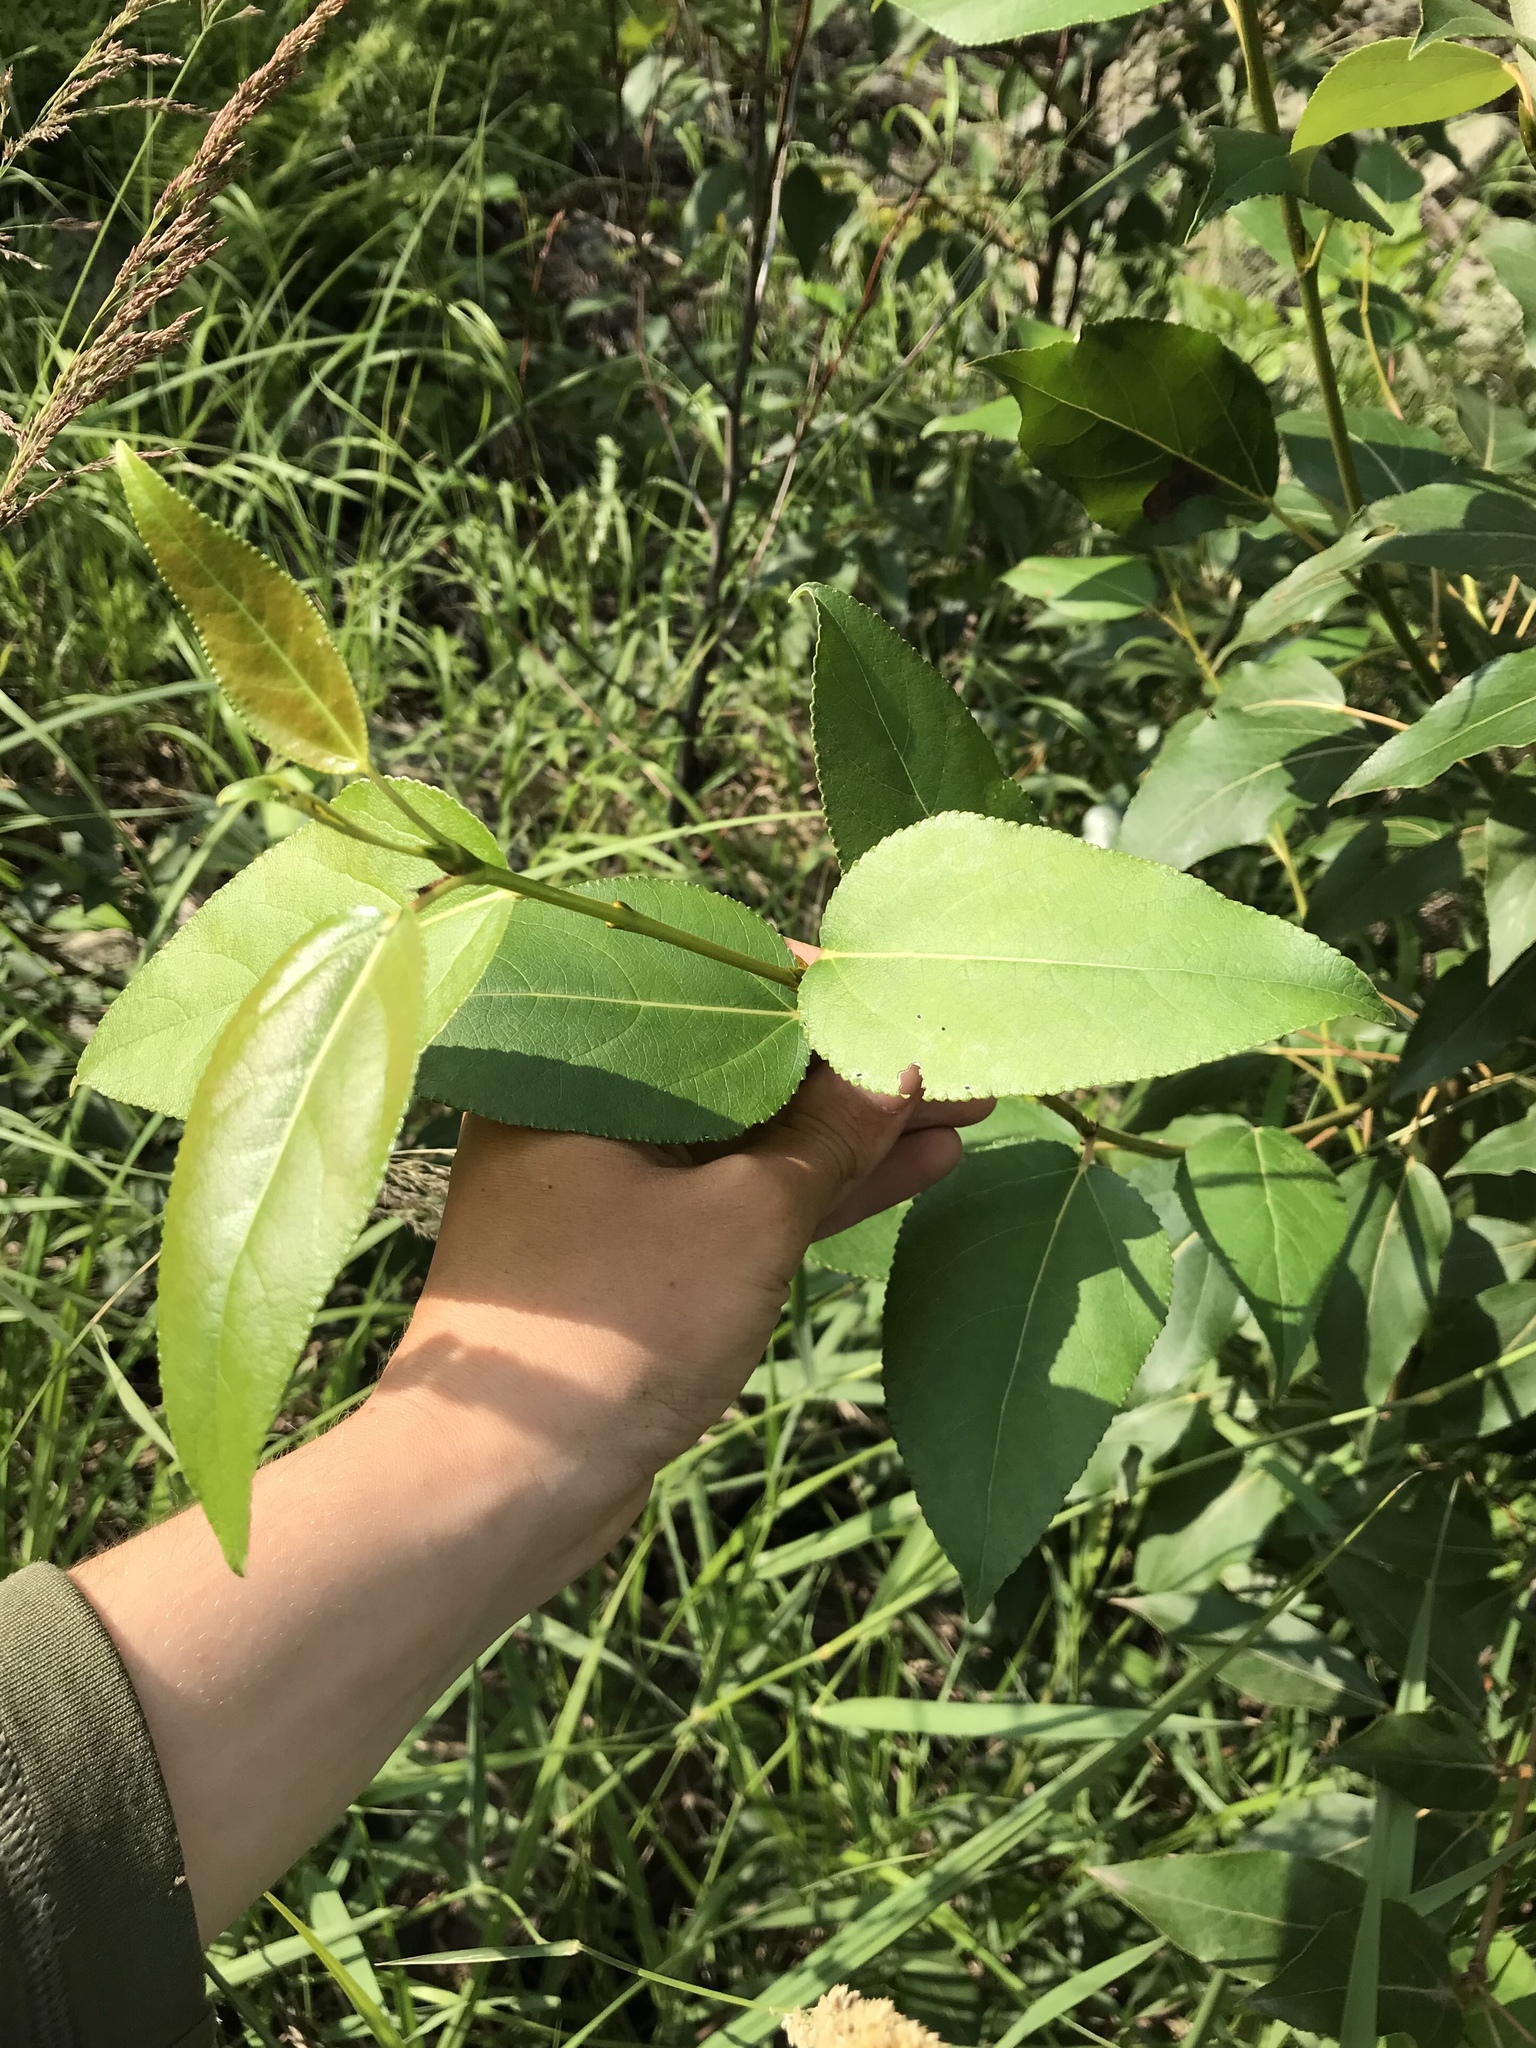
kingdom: Plantae
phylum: Tracheophyta
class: Magnoliopsida
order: Malpighiales
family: Salicaceae
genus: Populus
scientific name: Populus balsamifera
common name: Balsam poplar
